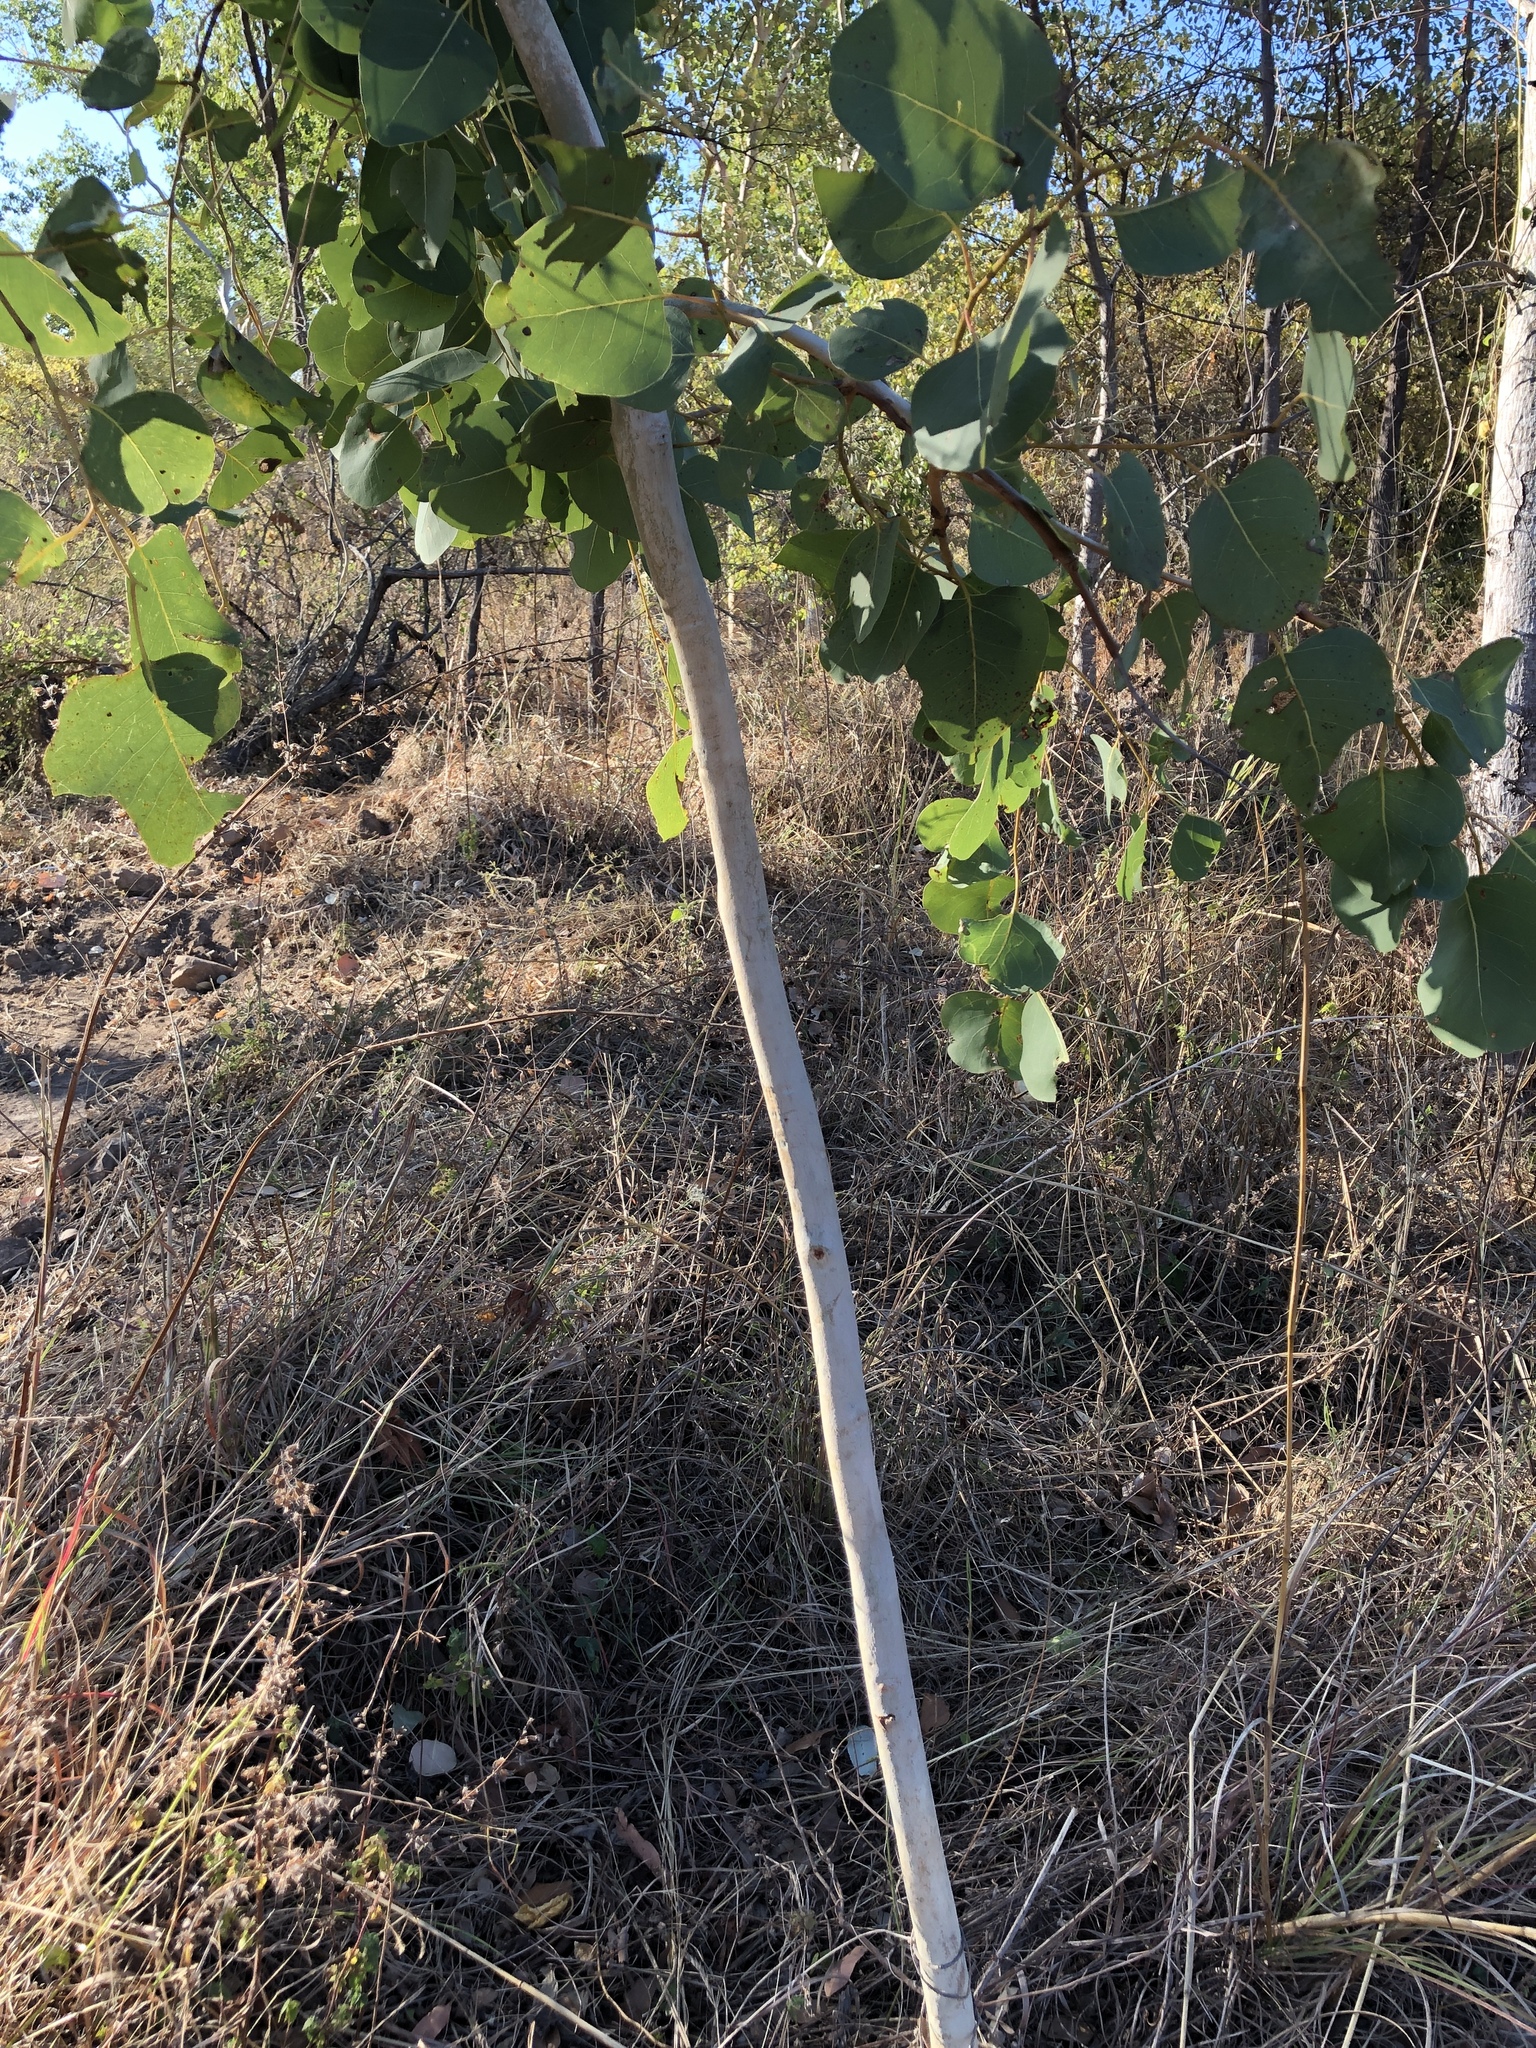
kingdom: Plantae
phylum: Tracheophyta
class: Magnoliopsida
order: Myrtales
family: Myrtaceae
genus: Eucalyptus
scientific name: Eucalyptus platyphylla
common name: Poplar-gum
